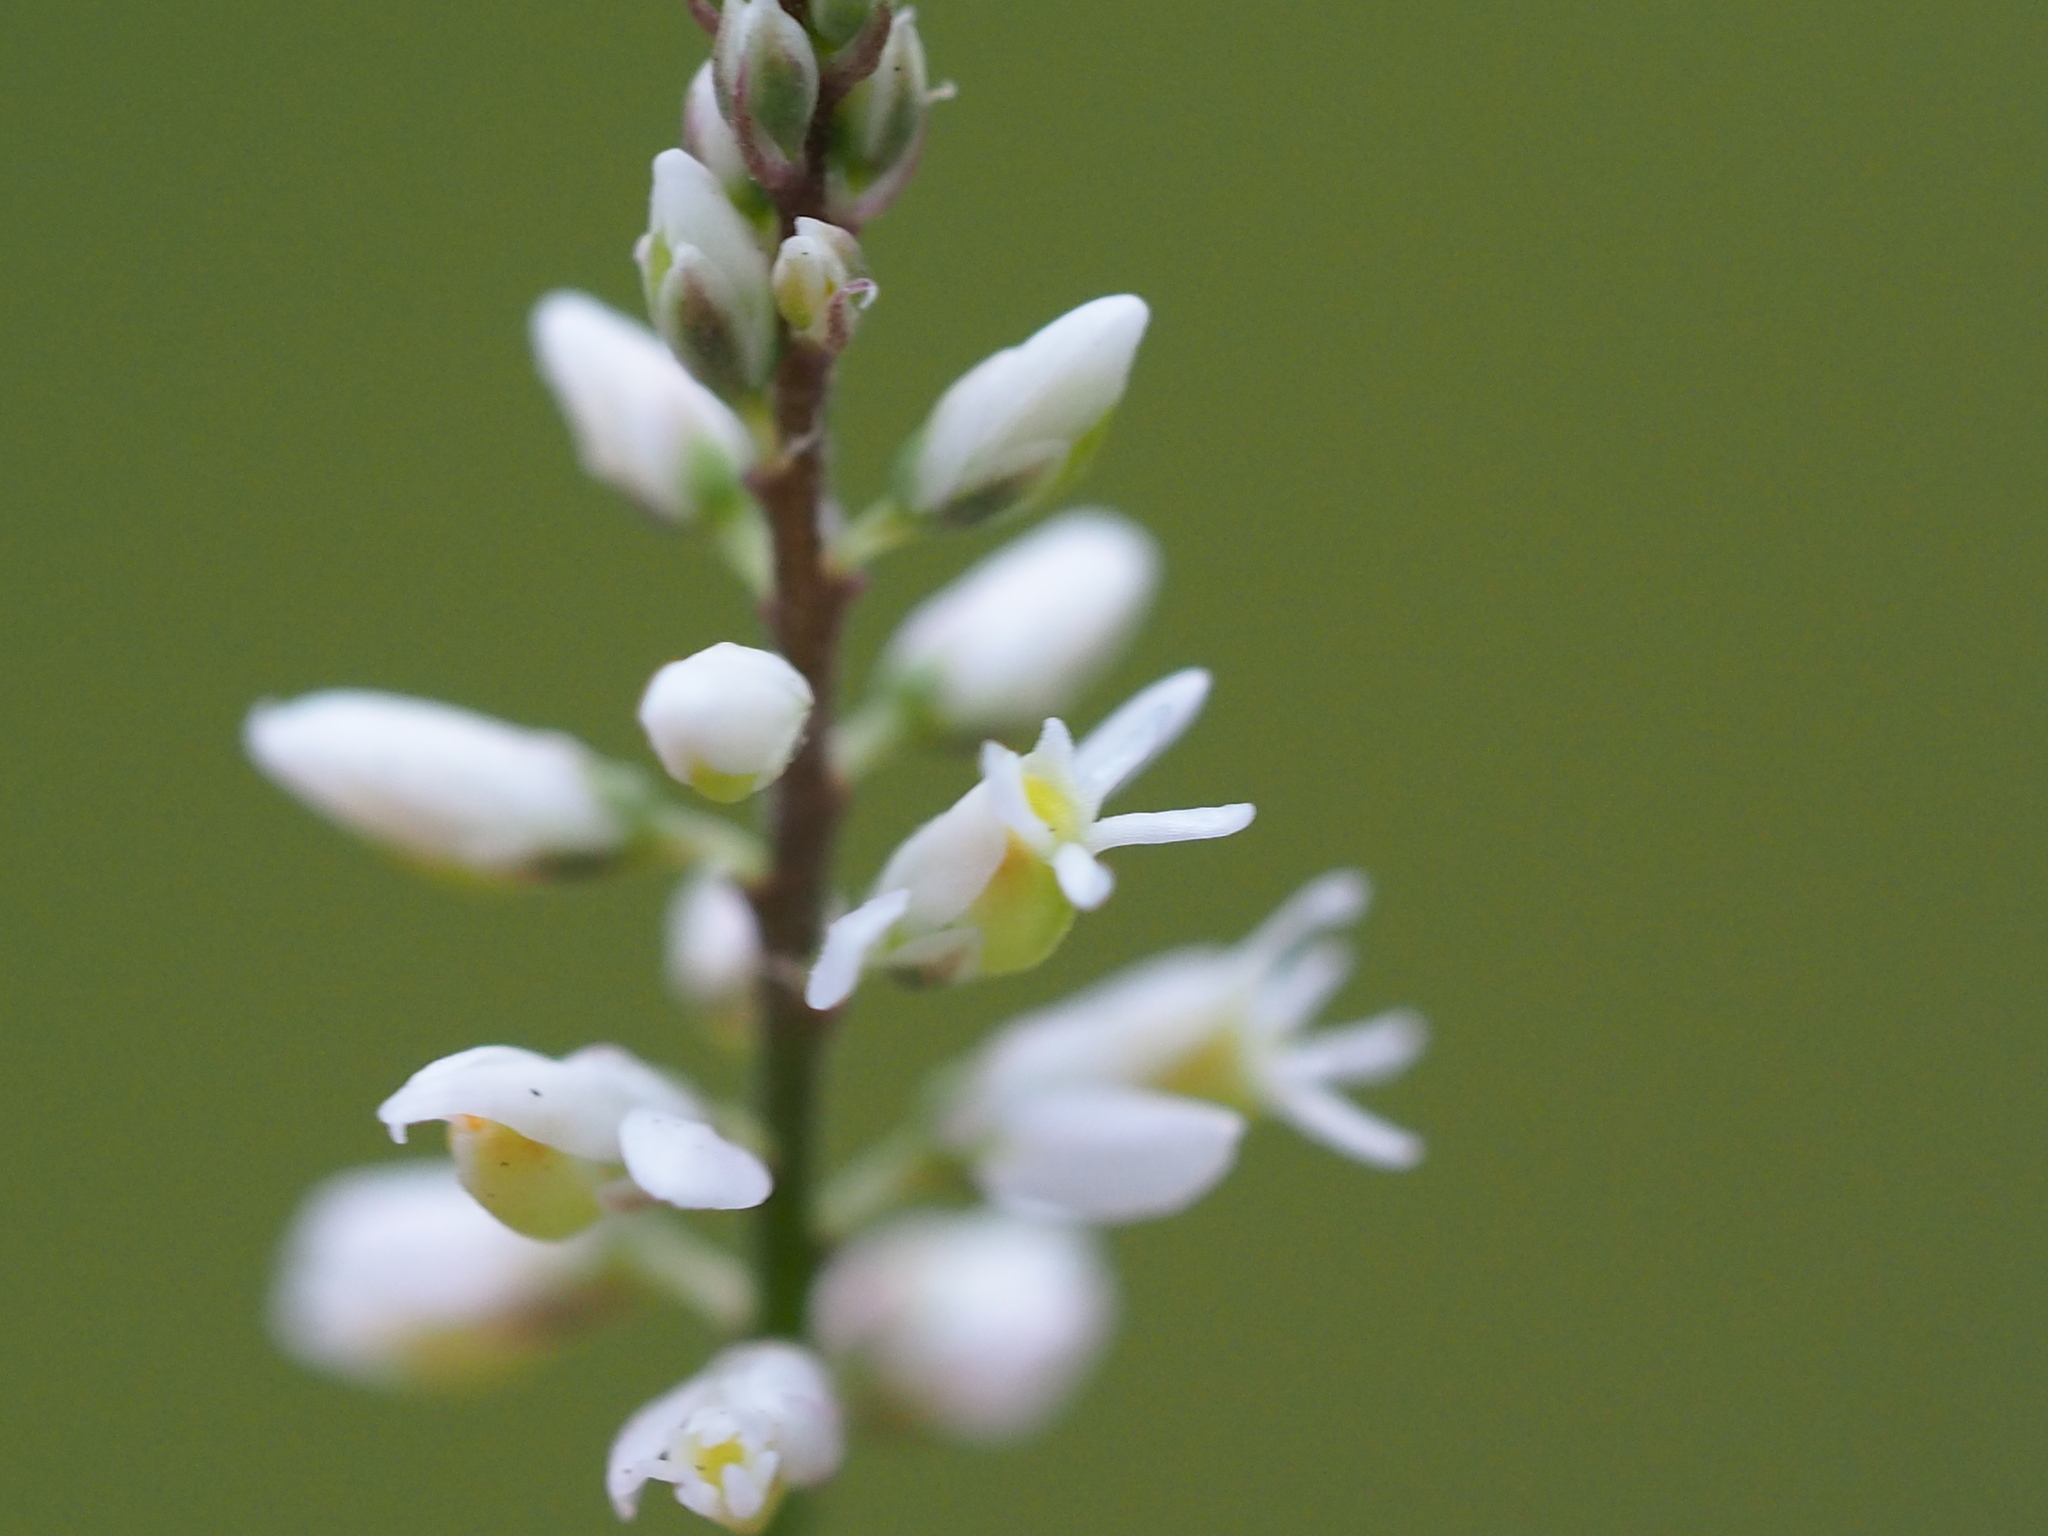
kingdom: Plantae
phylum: Tracheophyta
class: Magnoliopsida
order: Fabales
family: Polygalaceae
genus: Polygala
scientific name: Polygala paniculata
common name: Orosne
